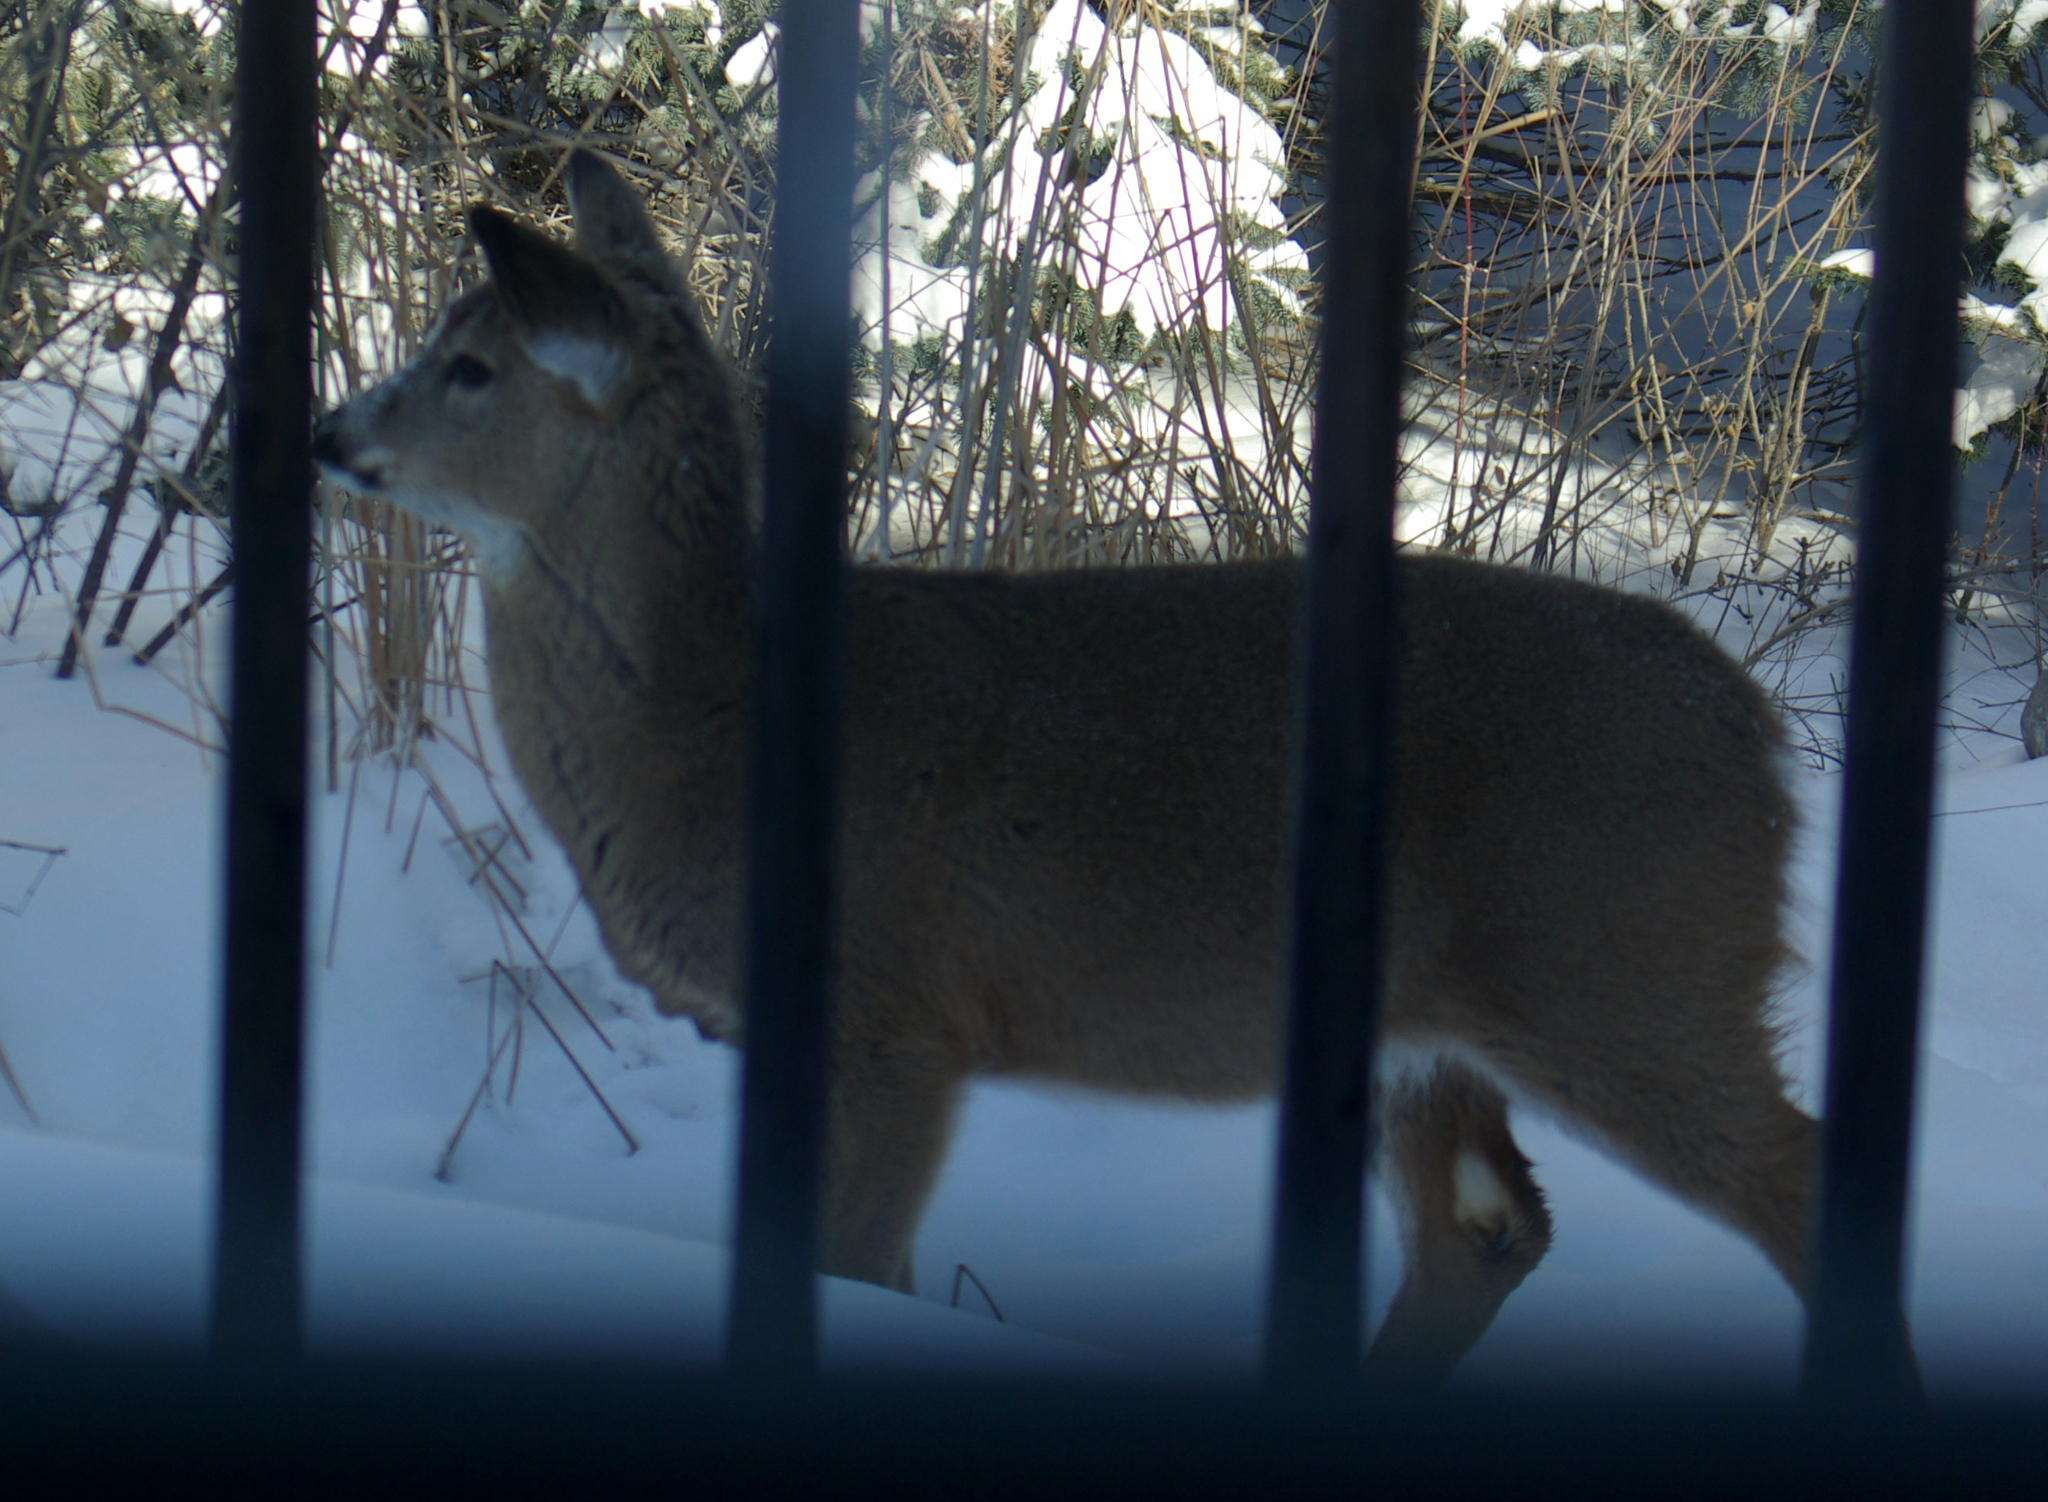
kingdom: Animalia
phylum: Chordata
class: Mammalia
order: Artiodactyla
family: Cervidae
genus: Odocoileus
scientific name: Odocoileus virginianus
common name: White-tailed deer
